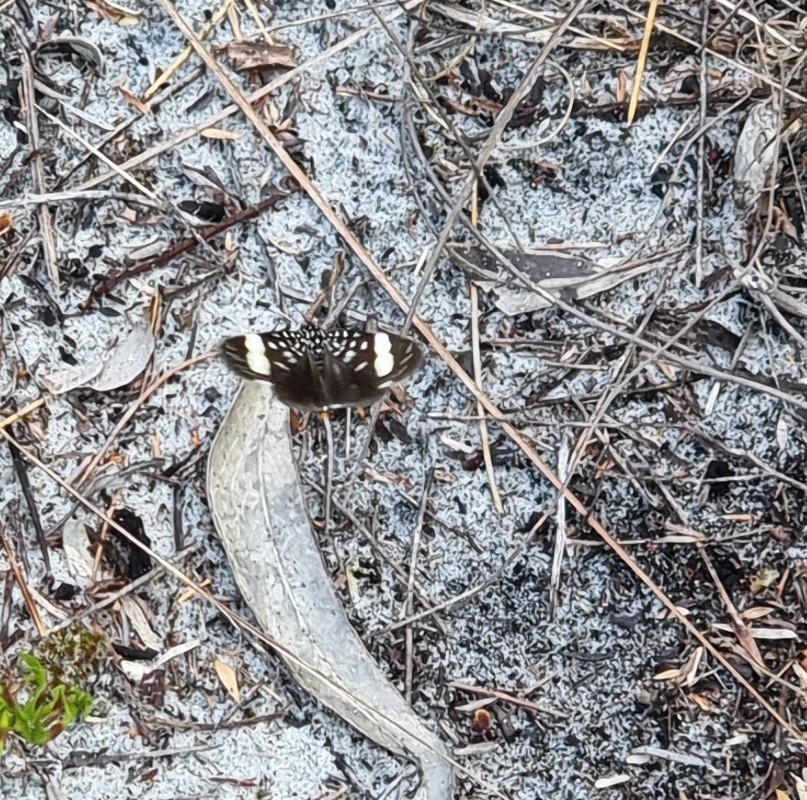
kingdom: Animalia
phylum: Arthropoda
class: Insecta
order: Lepidoptera
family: Noctuidae
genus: Idalima
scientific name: Idalima affinis
